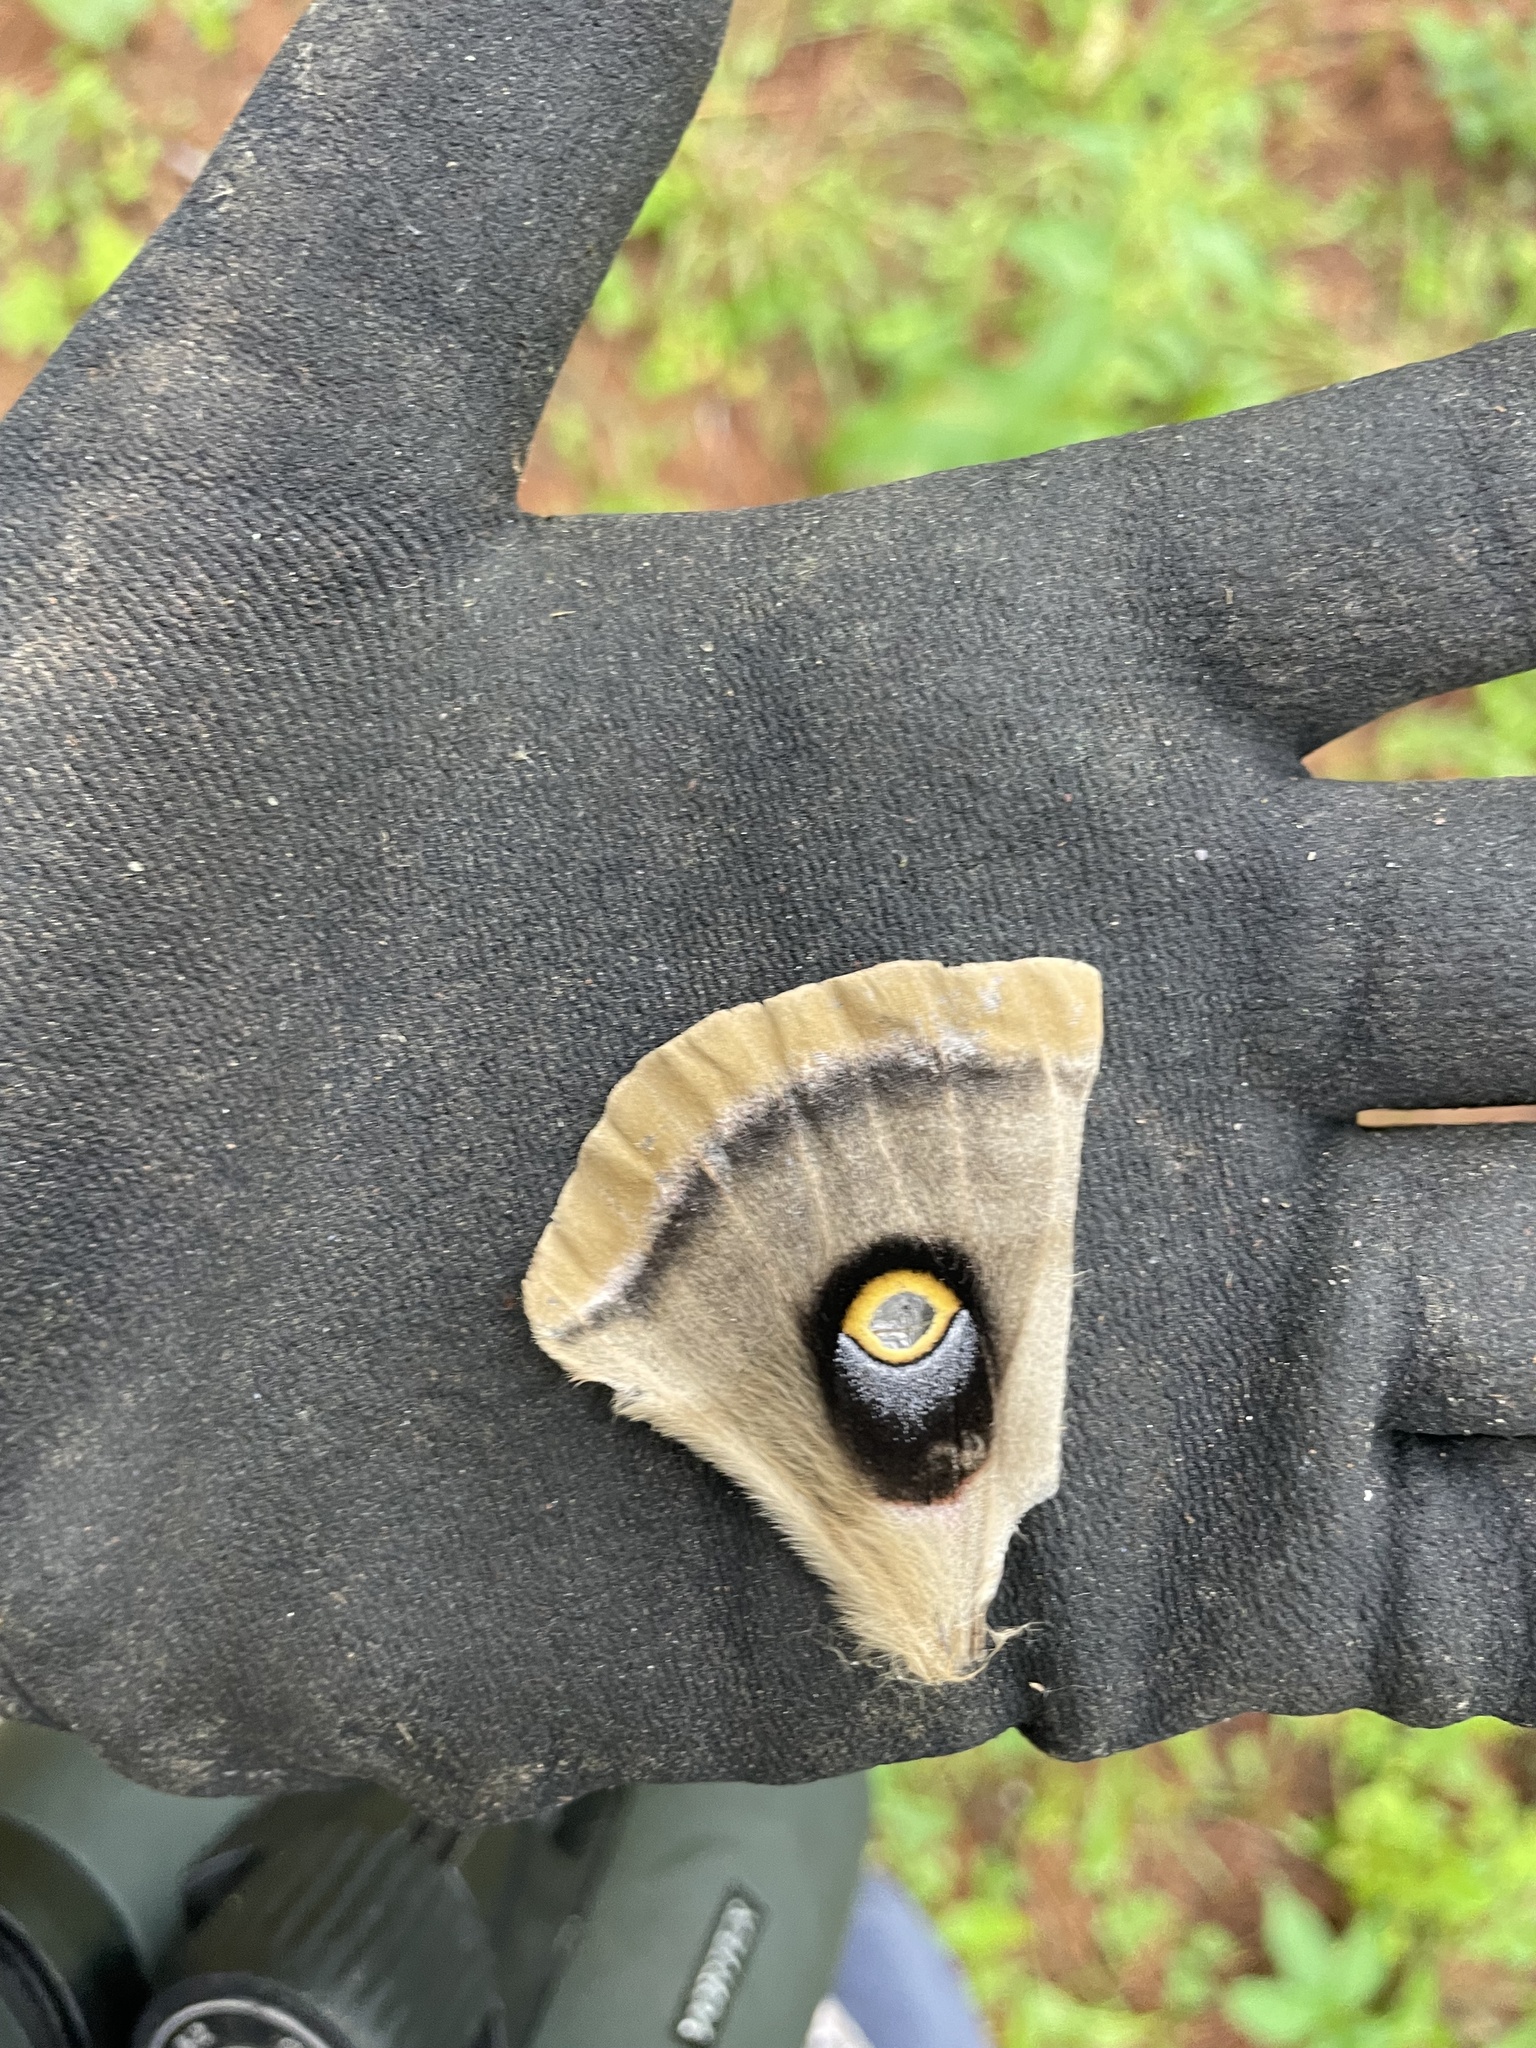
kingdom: Animalia
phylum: Arthropoda
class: Insecta
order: Lepidoptera
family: Saturniidae
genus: Antheraea
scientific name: Antheraea polyphemus
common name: Polyphemus moth
